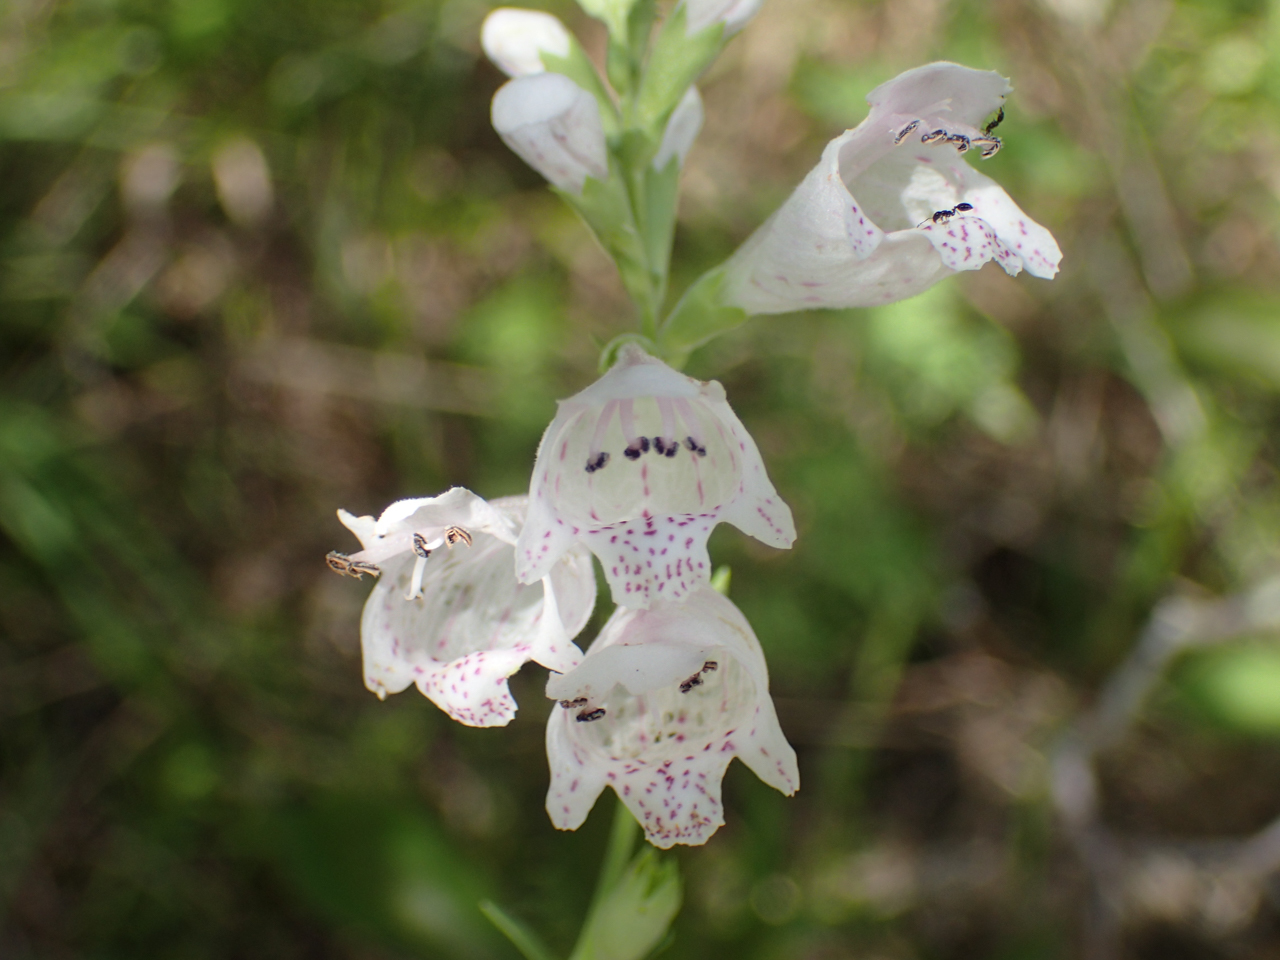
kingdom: Plantae
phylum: Tracheophyta
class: Magnoliopsida
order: Lamiales
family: Lamiaceae
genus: Physostegia
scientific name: Physostegia angustifolia
